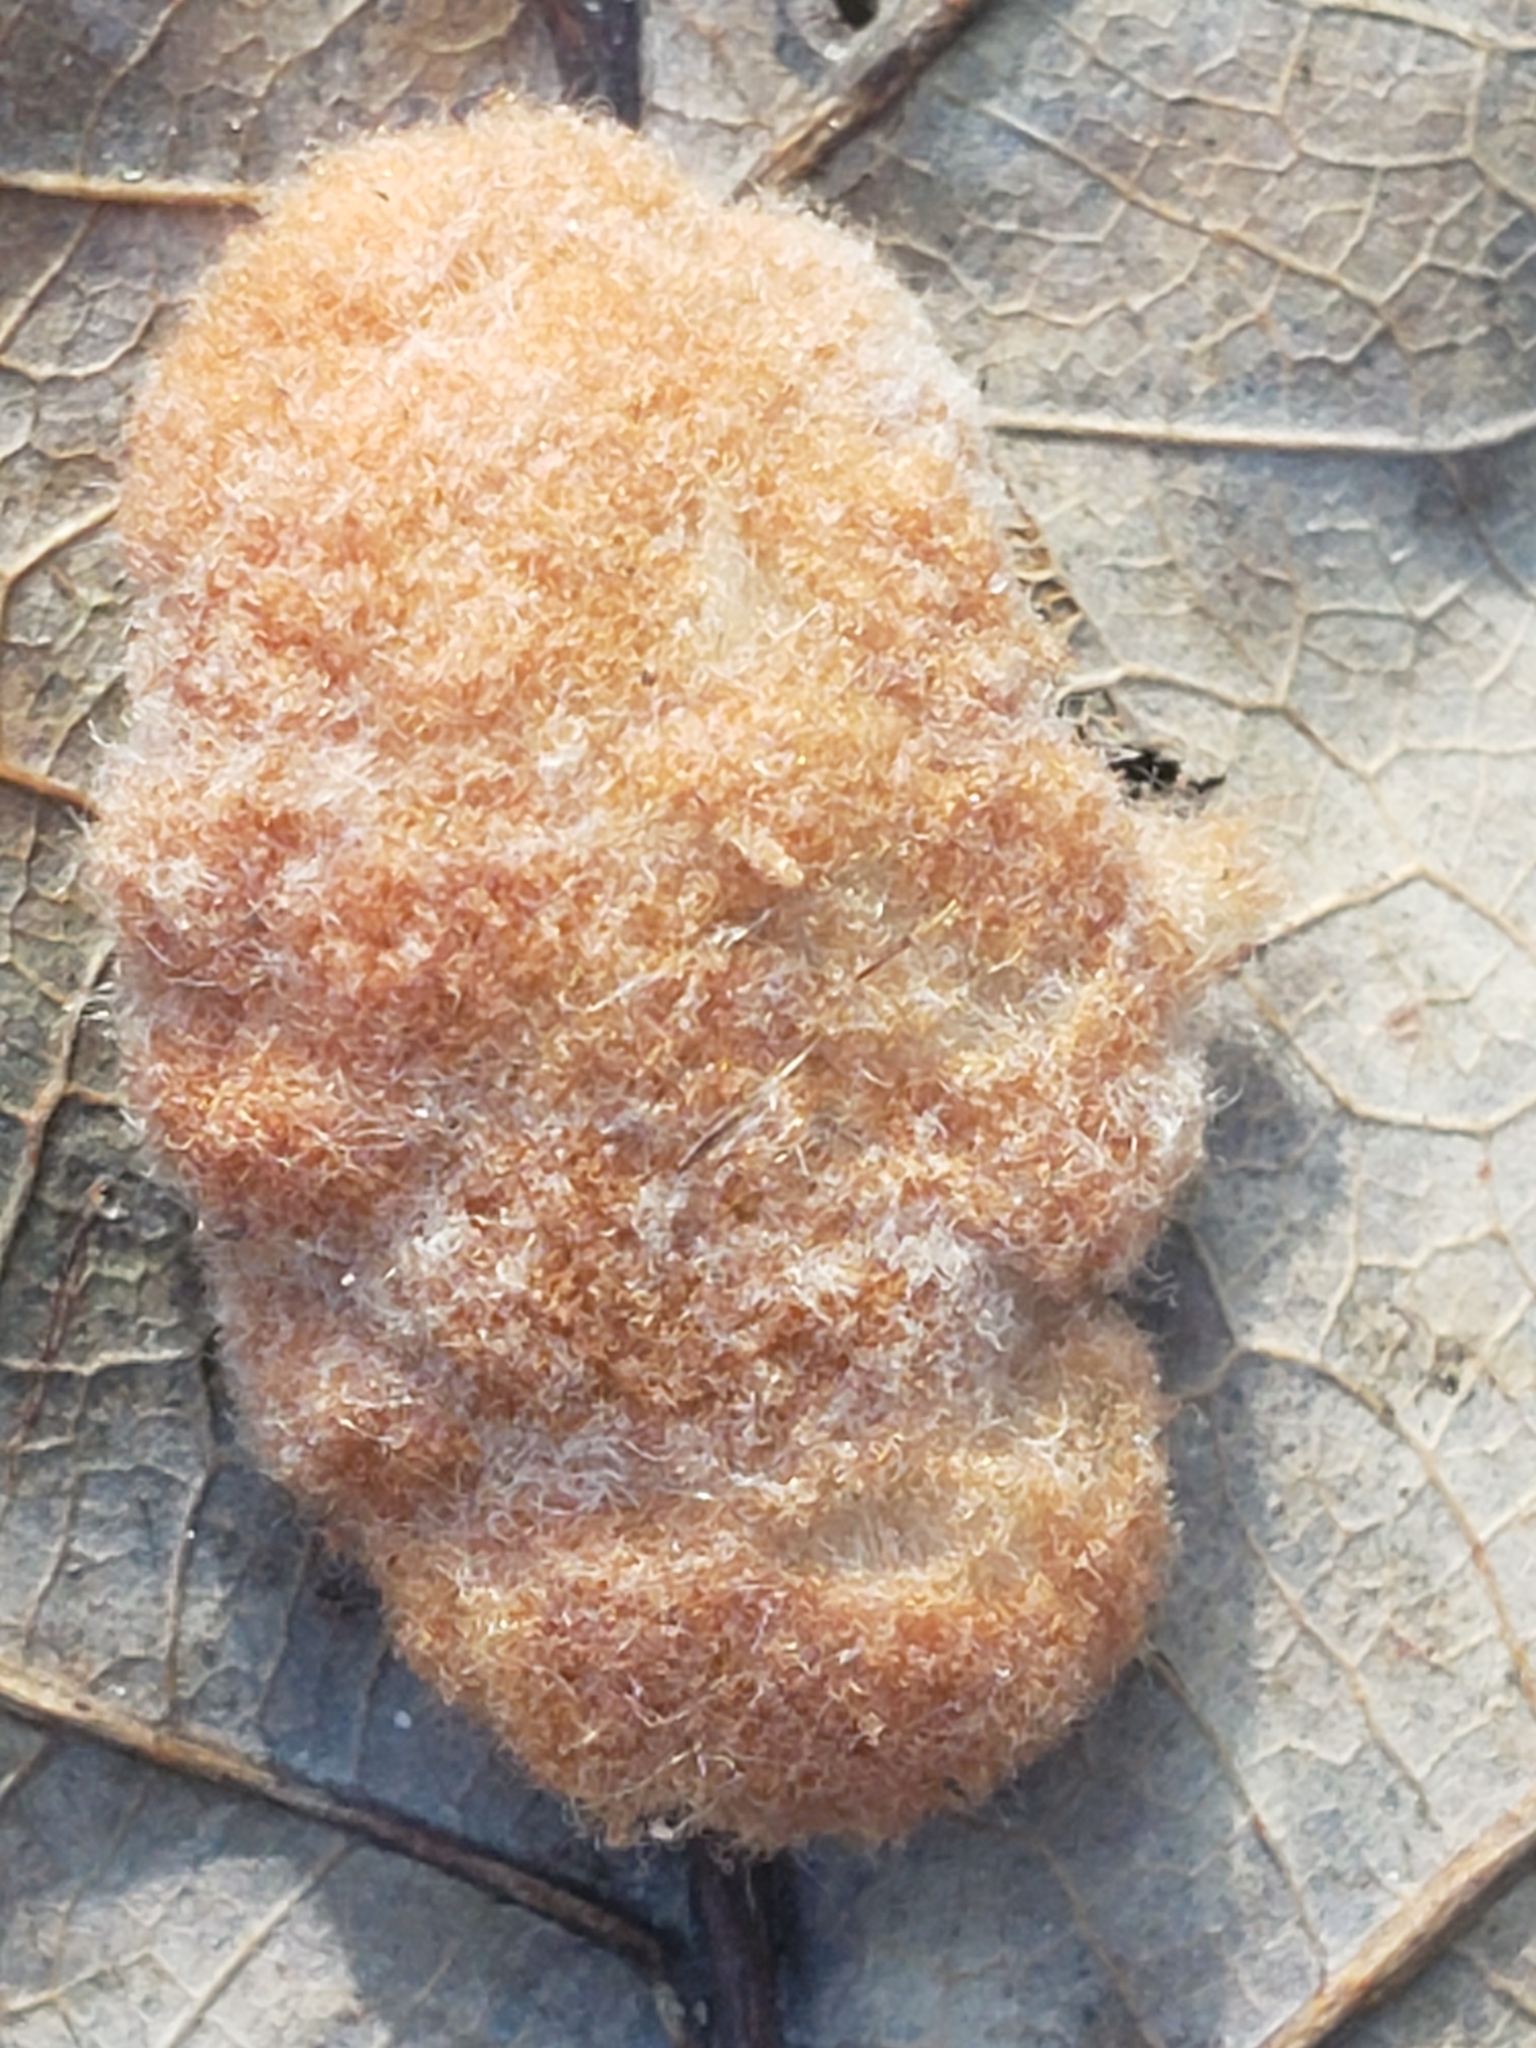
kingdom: Animalia
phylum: Arthropoda
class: Insecta
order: Hymenoptera
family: Cynipidae
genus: Andricus
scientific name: Andricus quercusflocci
